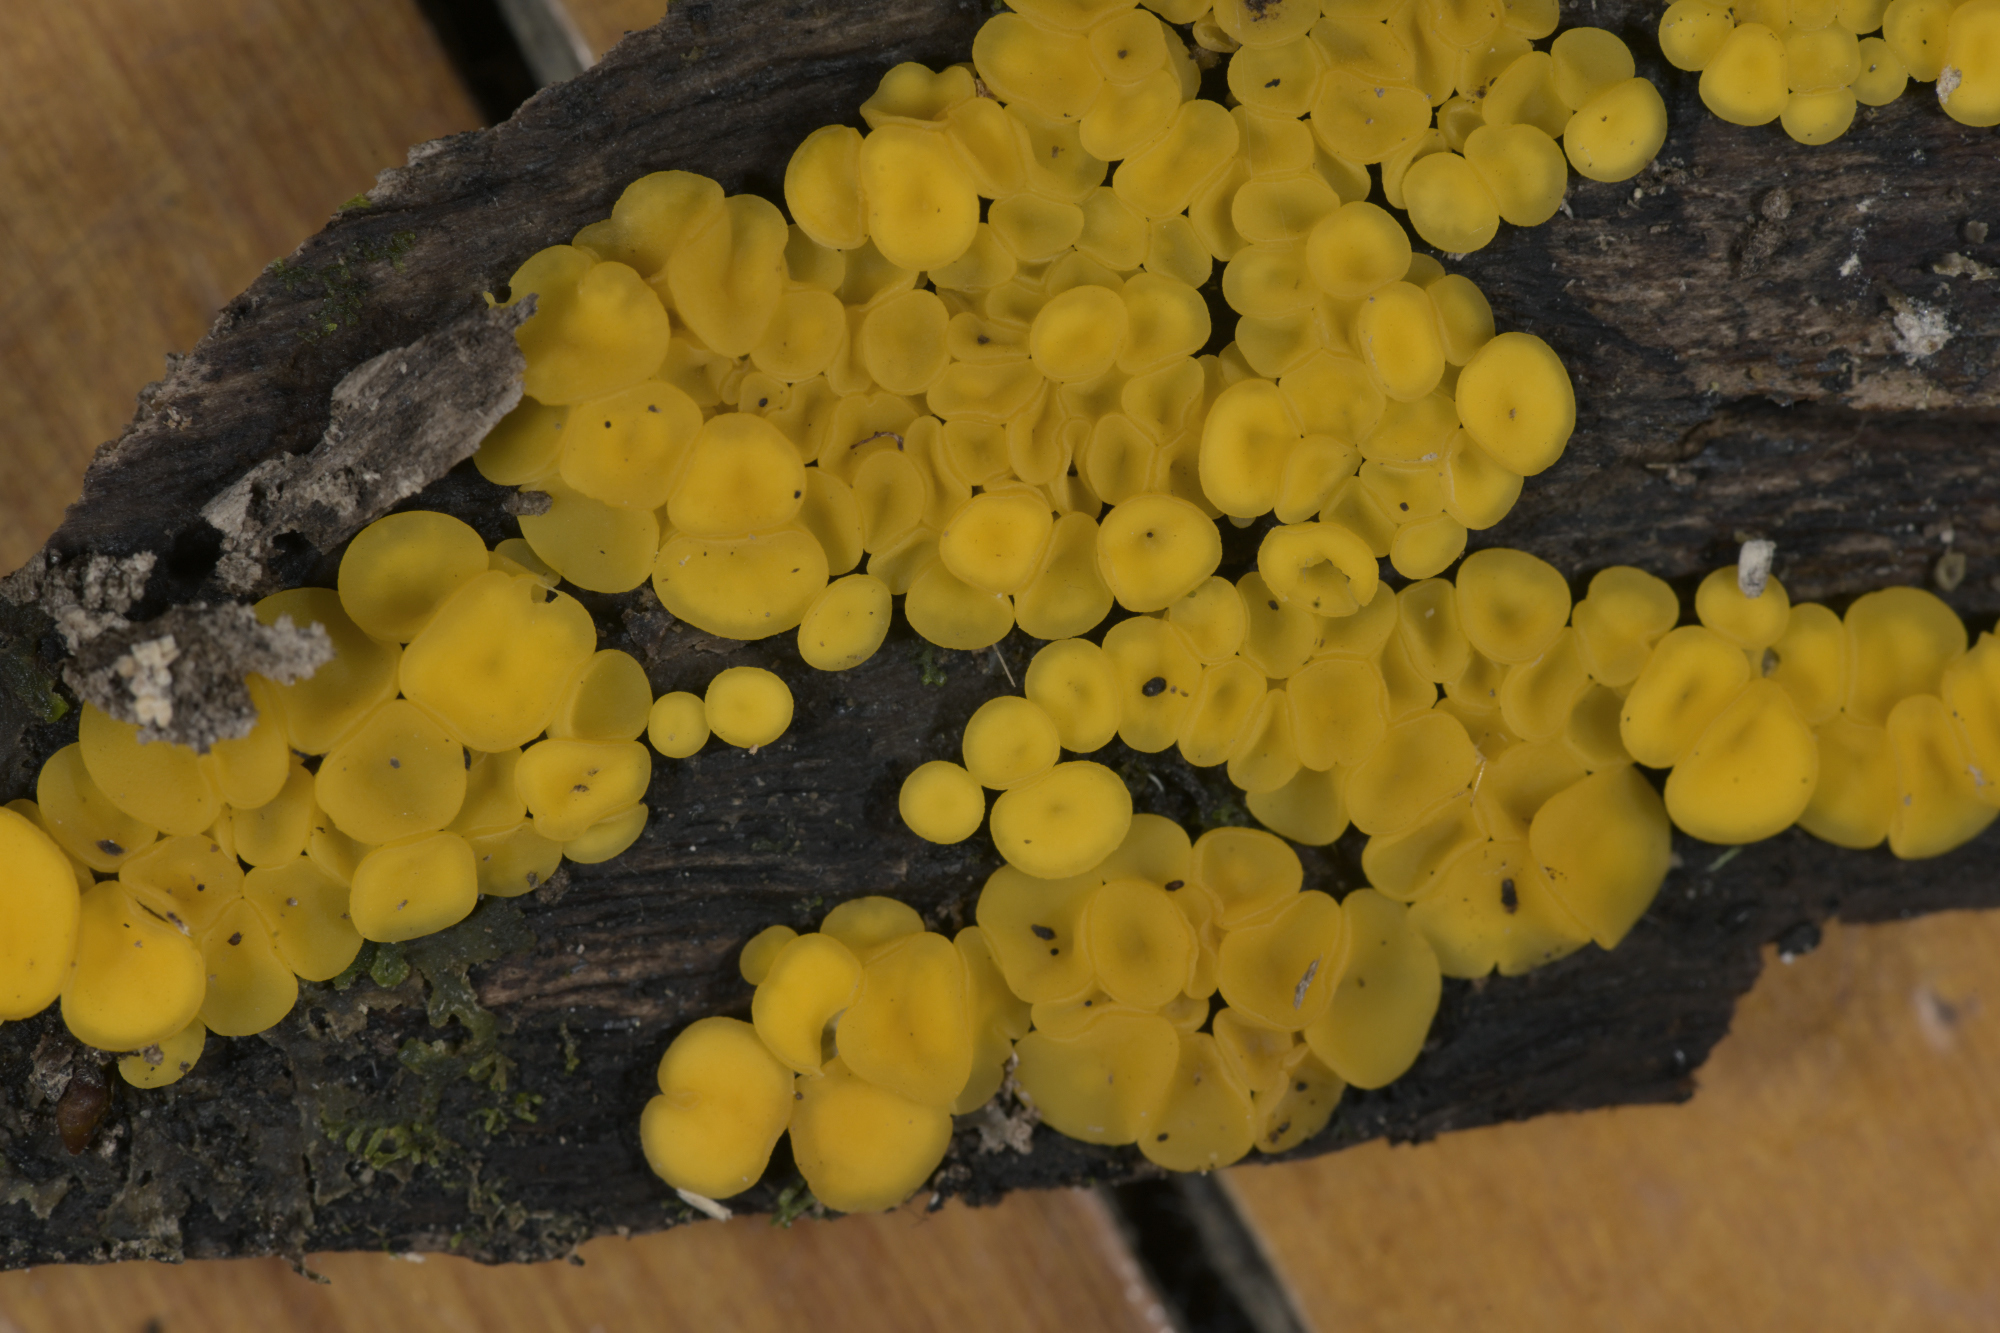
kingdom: Fungi
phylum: Ascomycota
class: Leotiomycetes
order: Helotiales
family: Pezizellaceae
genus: Calycina
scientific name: Calycina citrina
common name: Yellow fairy cups
